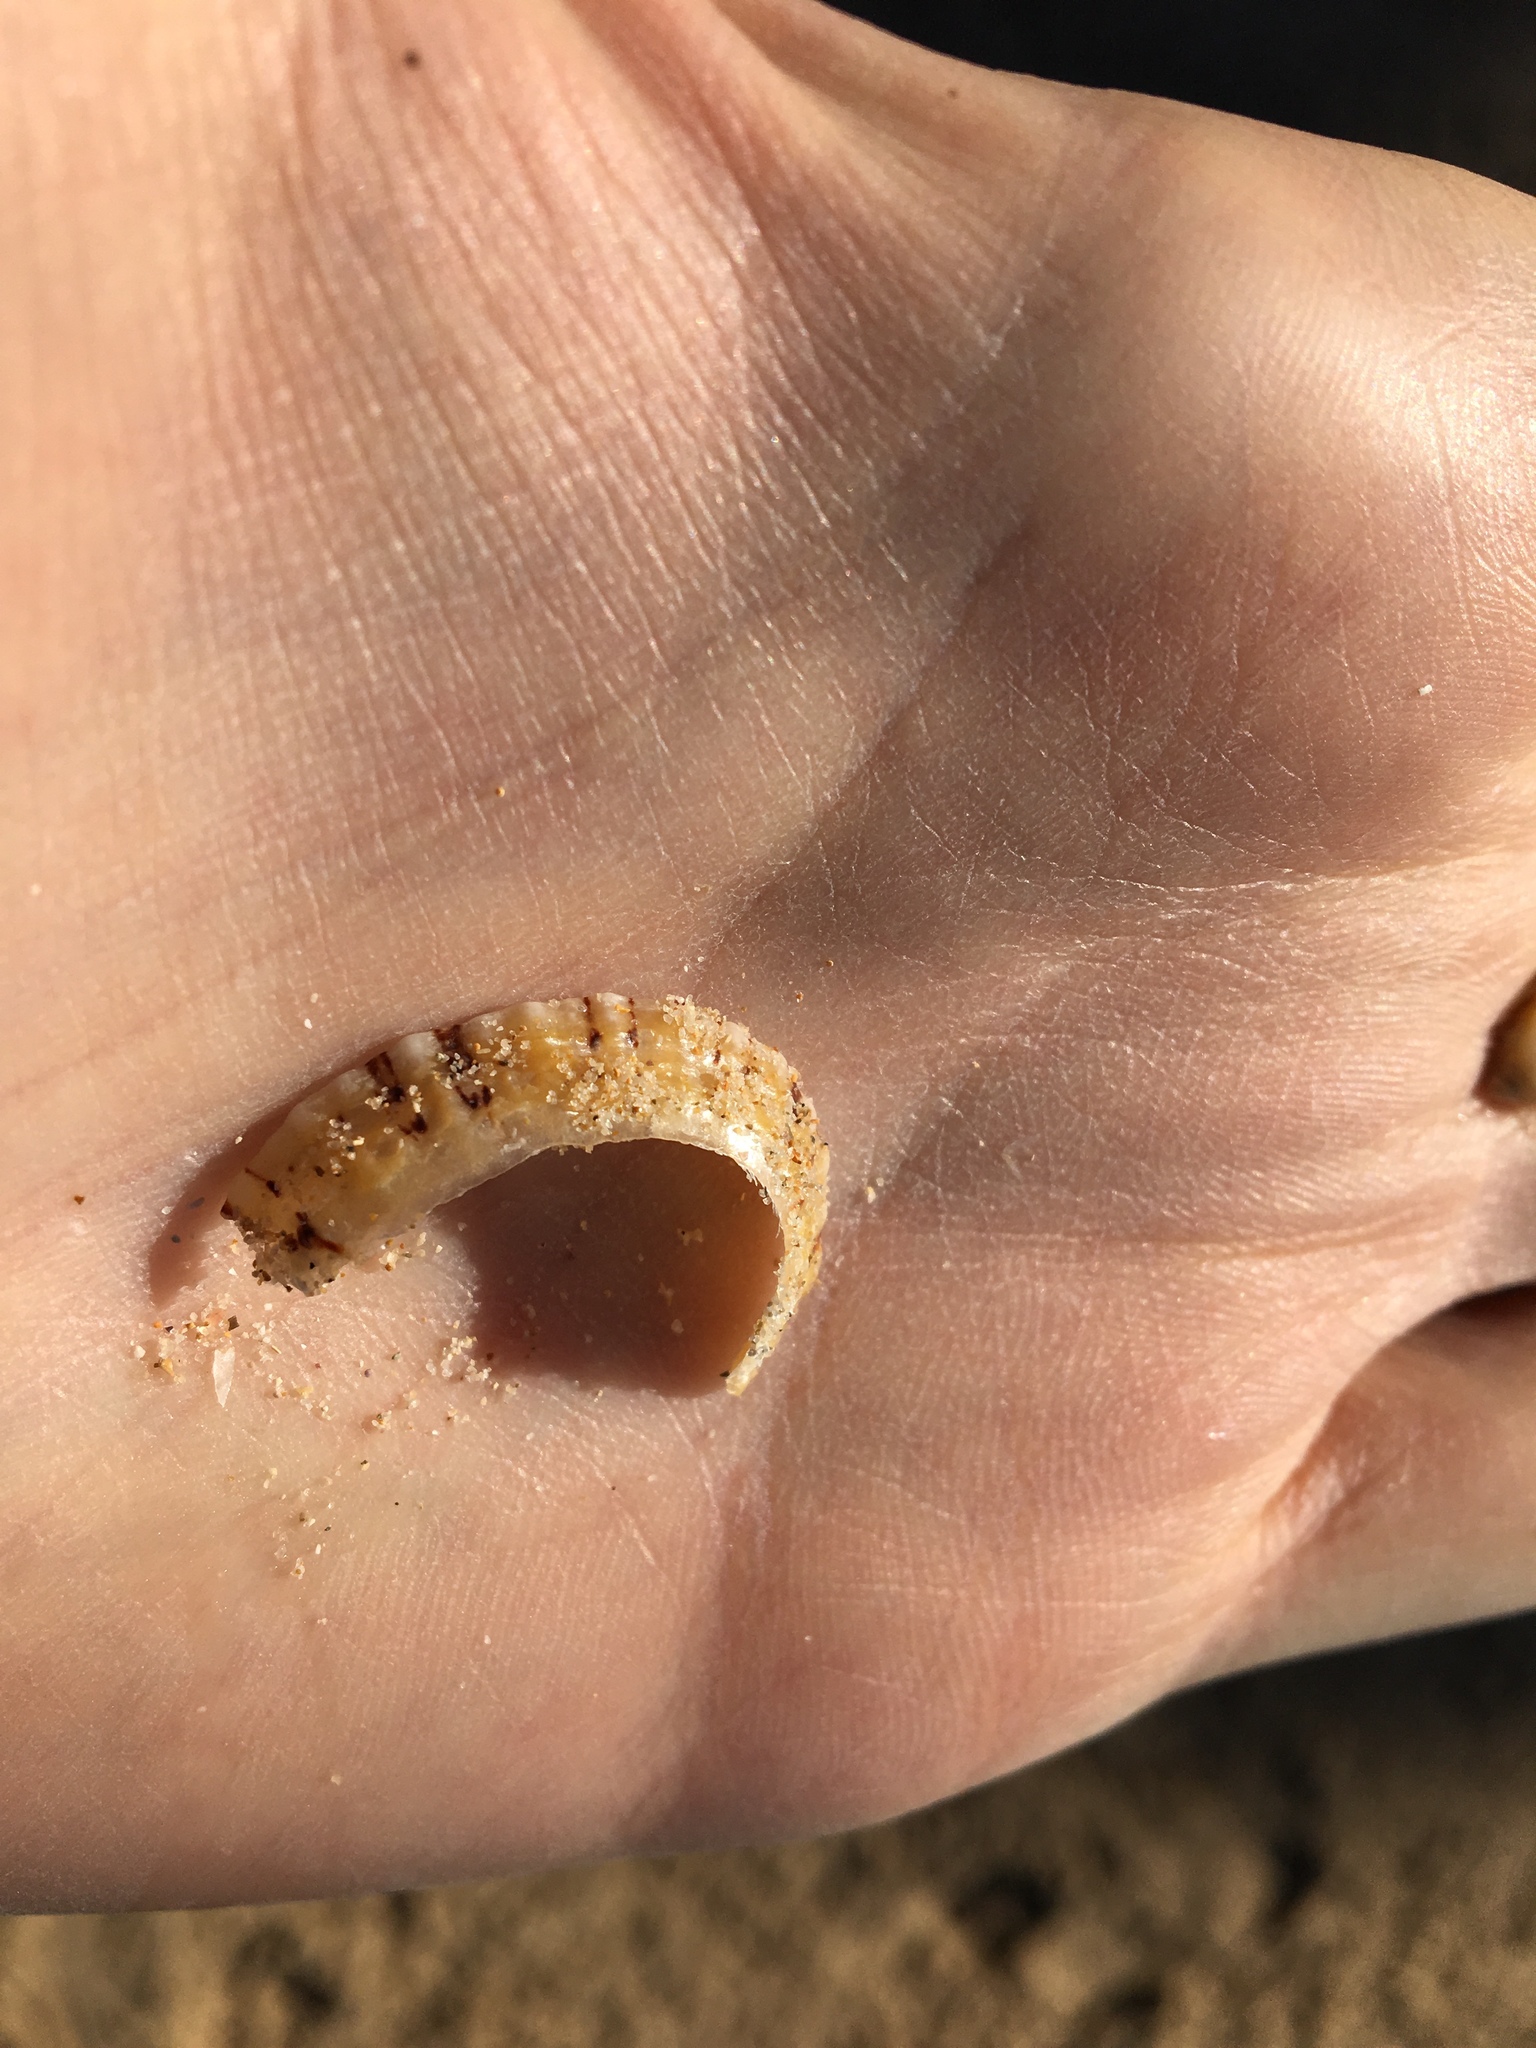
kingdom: Animalia
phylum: Mollusca
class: Gastropoda
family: Nacellidae
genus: Cellana
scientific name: Cellana tramoserica
